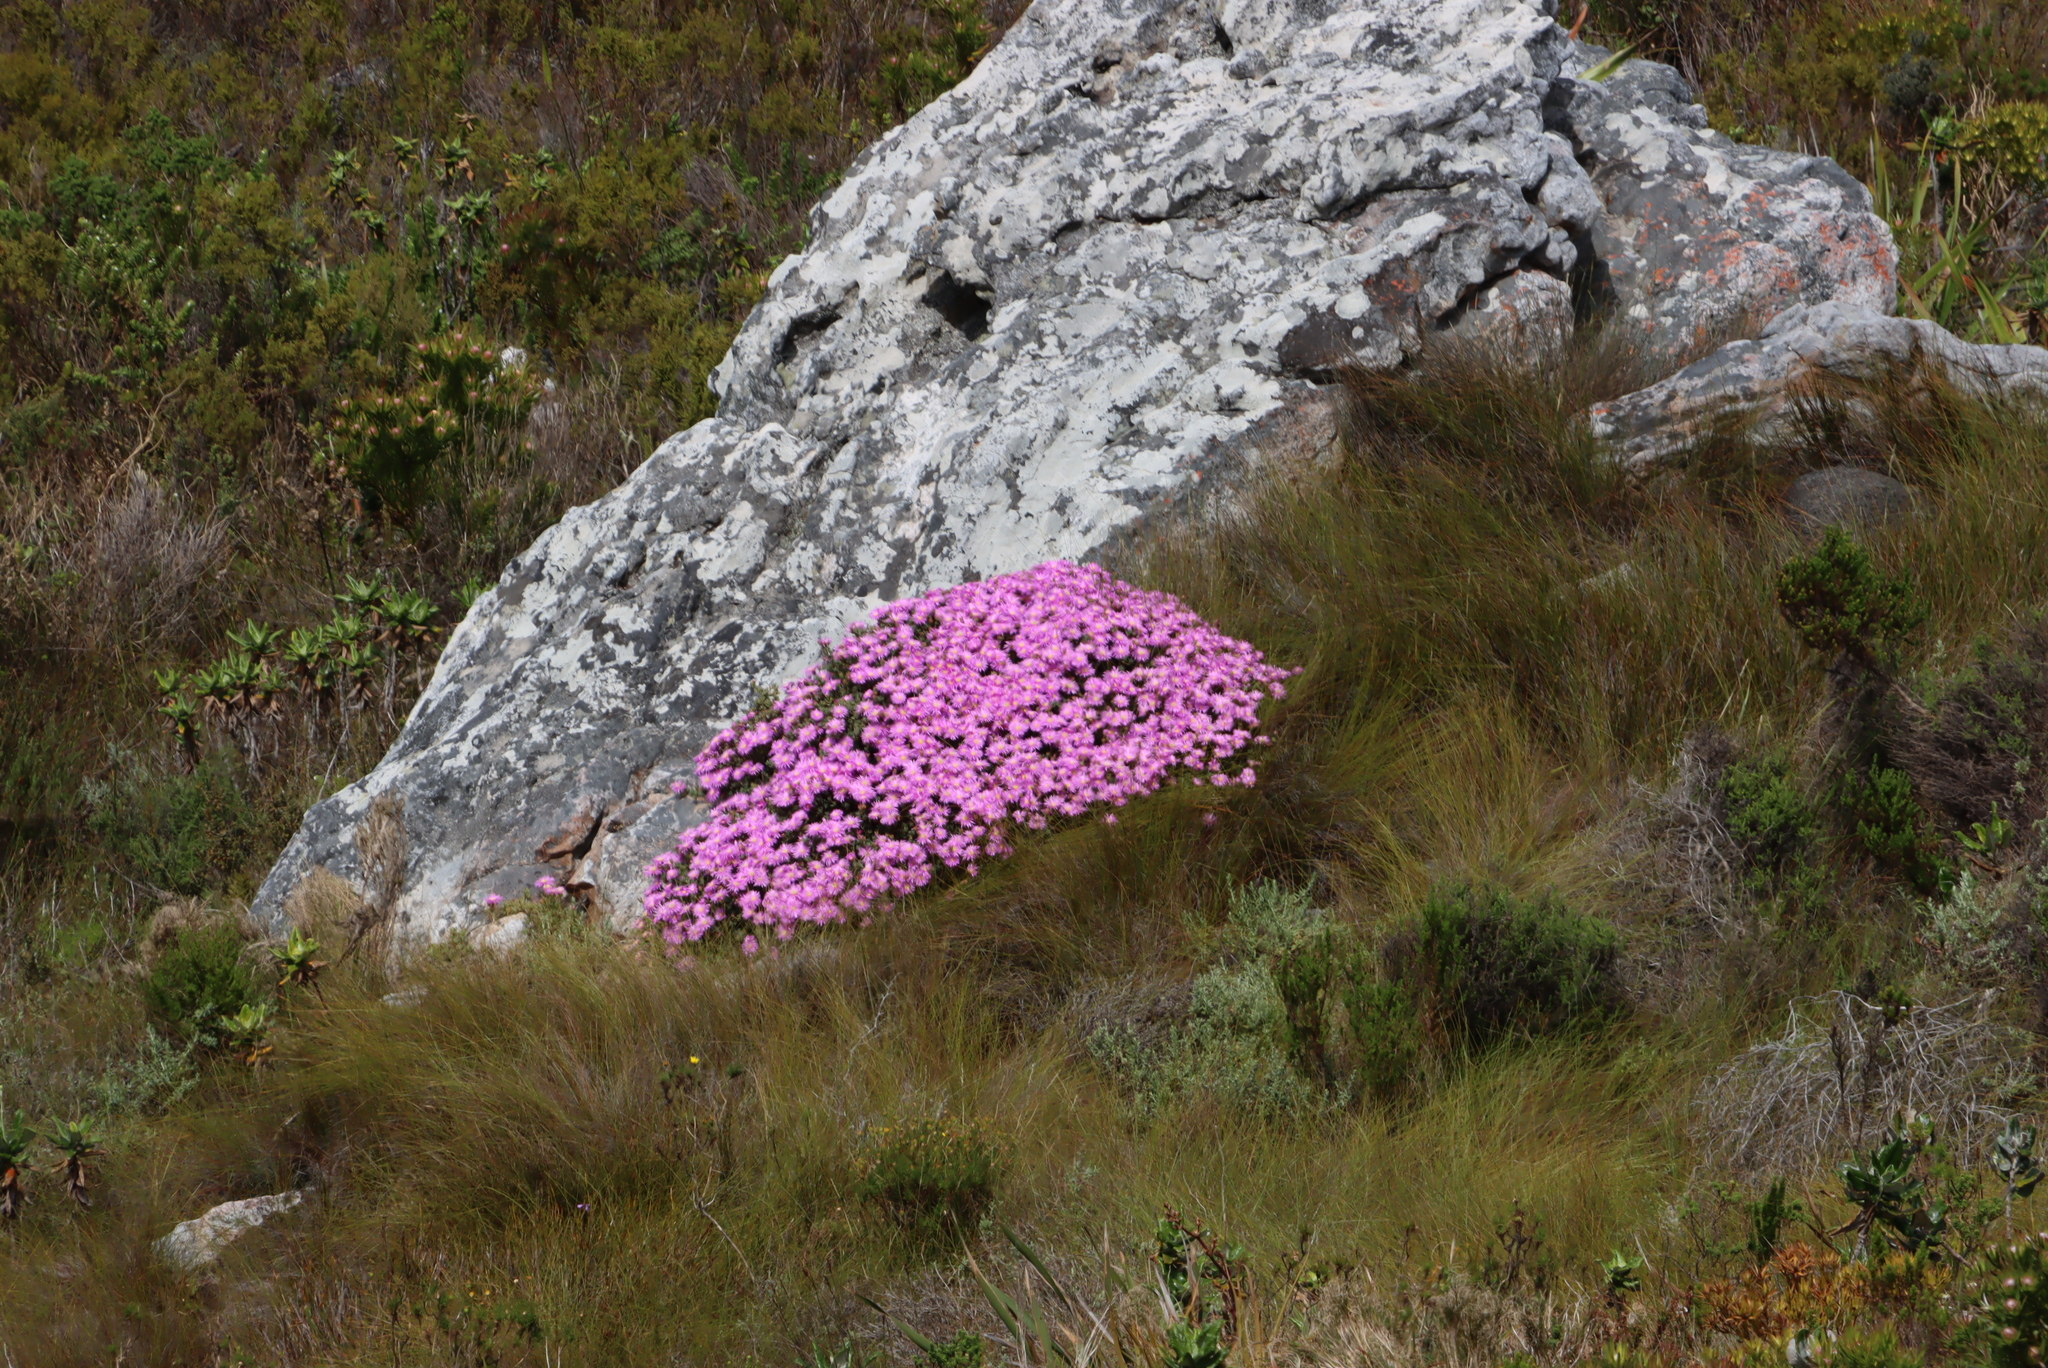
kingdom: Plantae
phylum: Tracheophyta
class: Magnoliopsida
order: Caryophyllales
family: Aizoaceae
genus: Oscularia
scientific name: Oscularia falciformis
